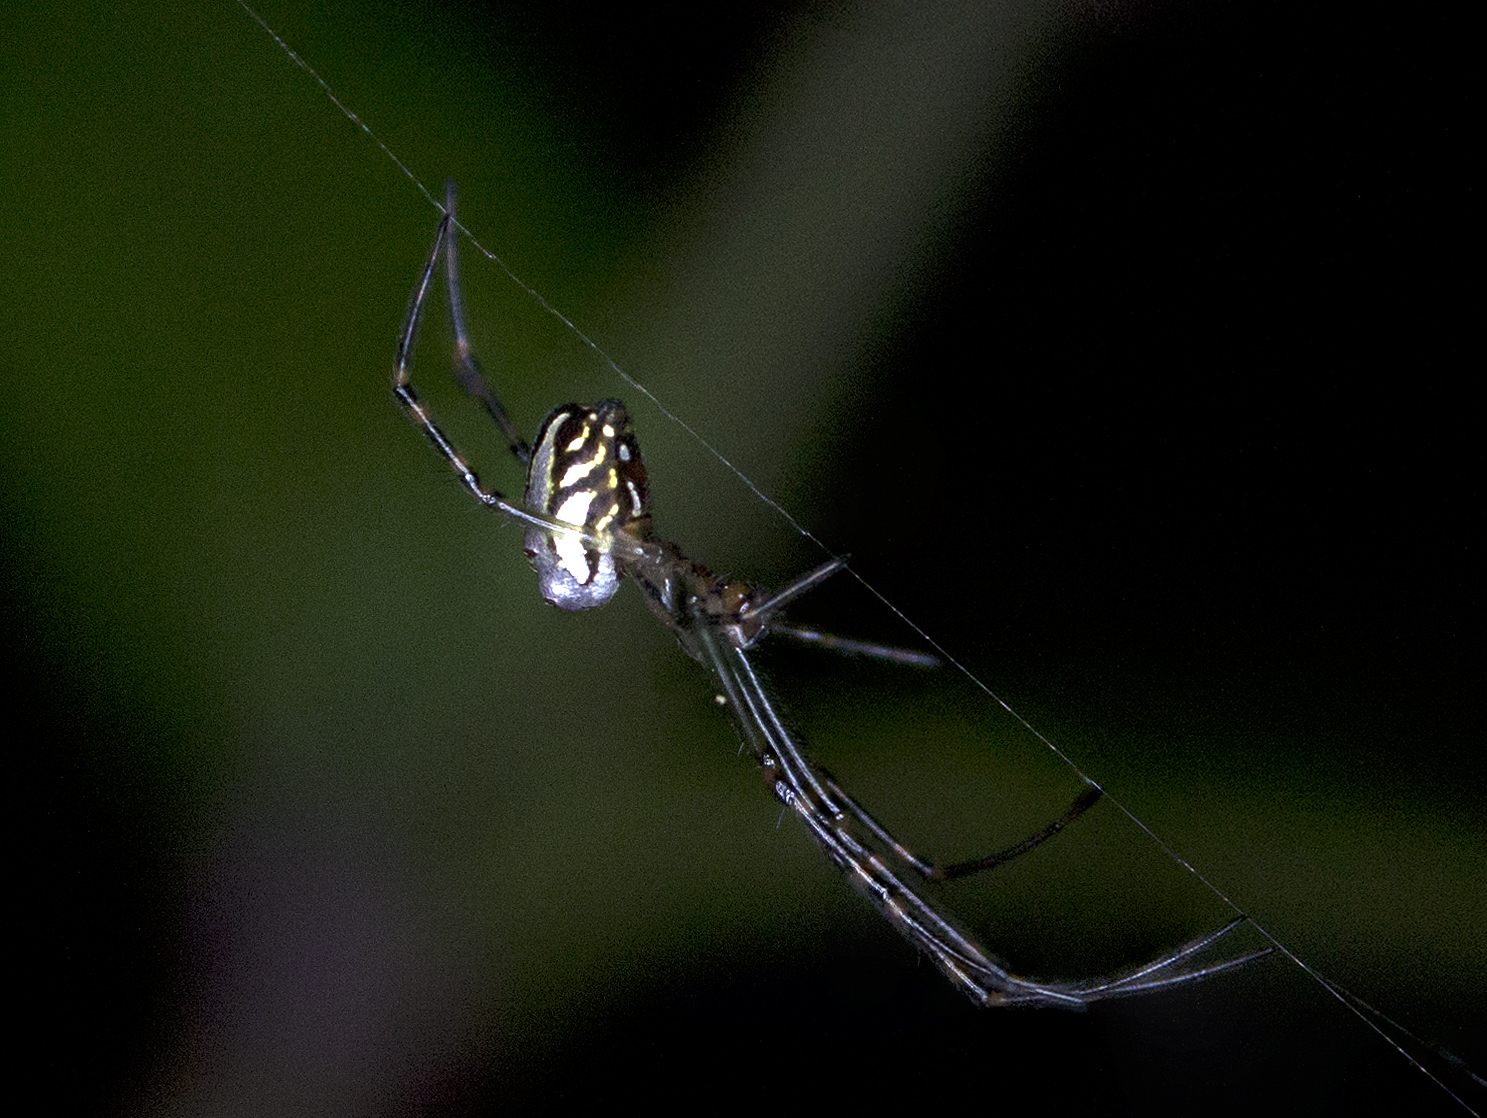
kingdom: Animalia
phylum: Arthropoda
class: Arachnida
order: Araneae
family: Tetragnathidae
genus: Leucauge
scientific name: Leucauge dromedaria
